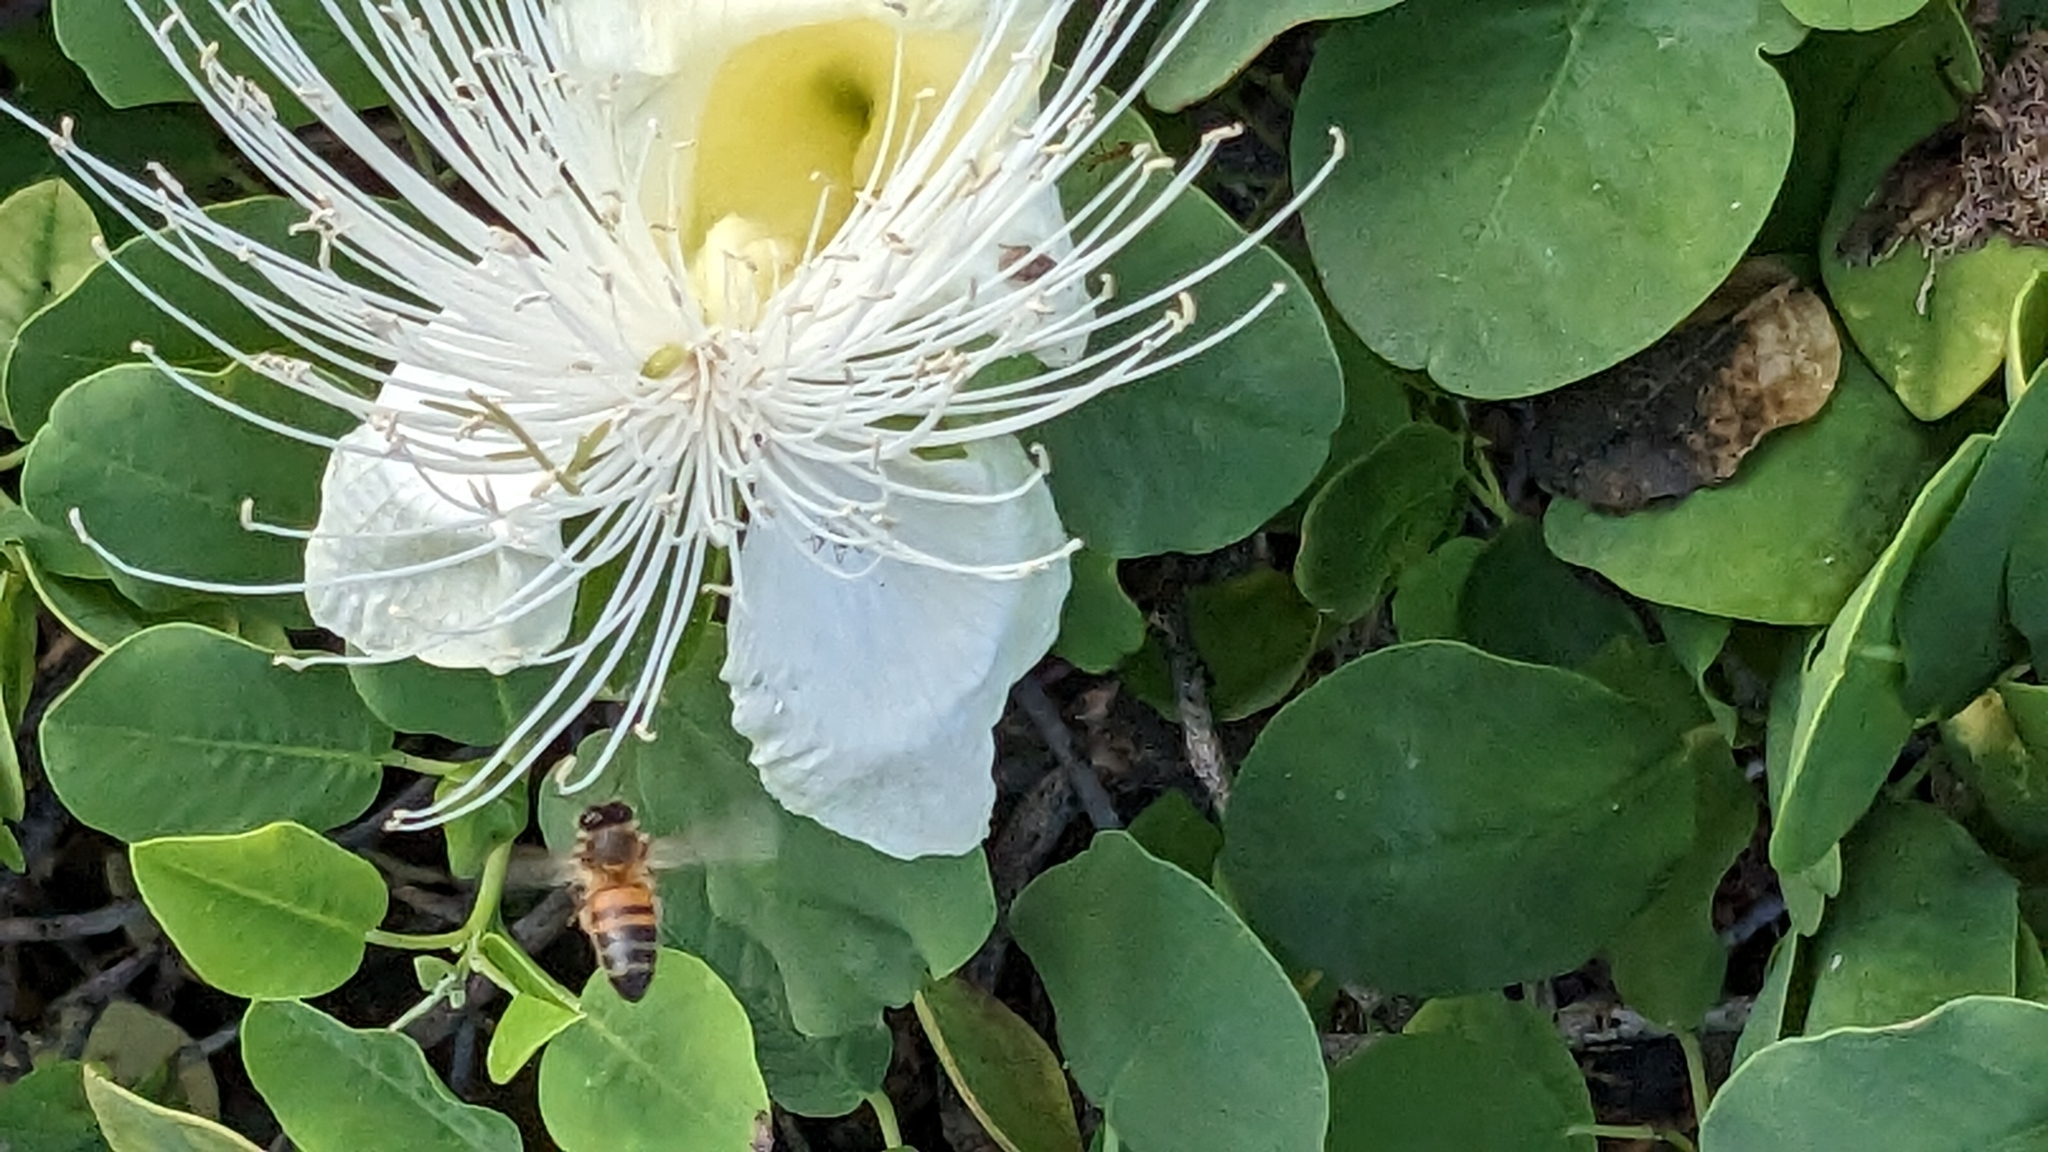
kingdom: Animalia
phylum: Arthropoda
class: Insecta
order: Hymenoptera
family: Apidae
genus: Apis
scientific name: Apis mellifera
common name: Honey bee
